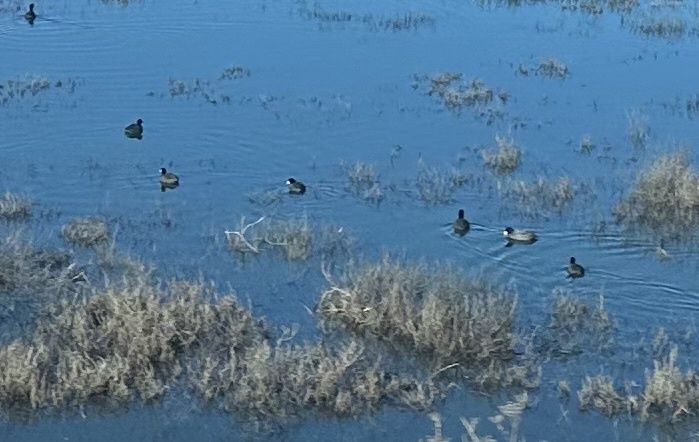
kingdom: Animalia
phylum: Chordata
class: Aves
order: Gruiformes
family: Rallidae
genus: Fulica
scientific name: Fulica americana
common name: American coot
